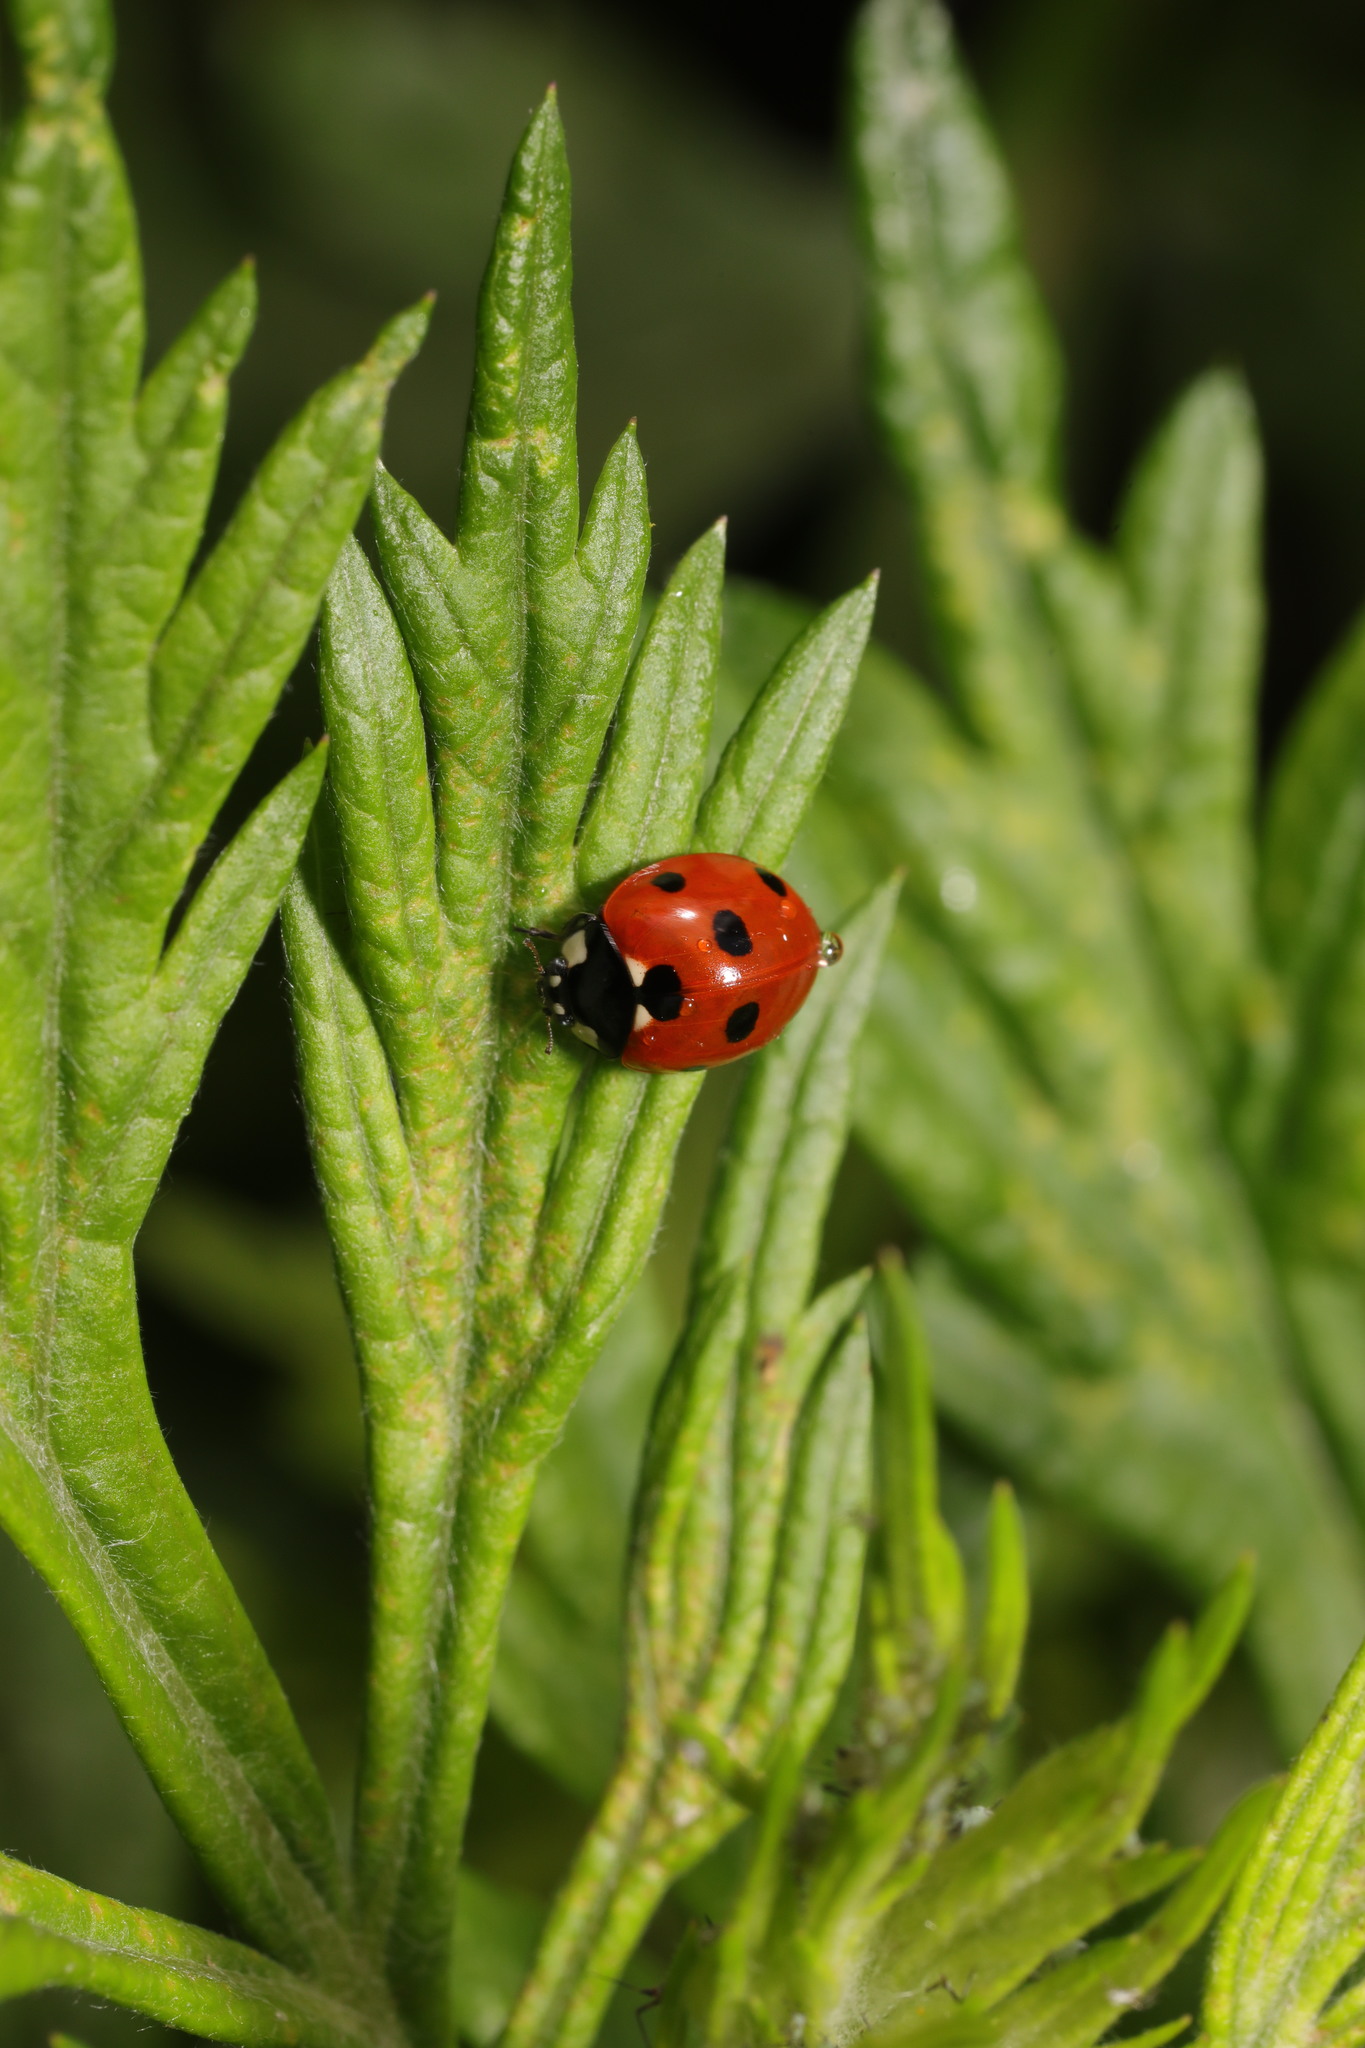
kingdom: Animalia
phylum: Arthropoda
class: Insecta
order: Coleoptera
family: Coccinellidae
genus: Coccinella
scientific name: Coccinella septempunctata
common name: Sevenspotted lady beetle
